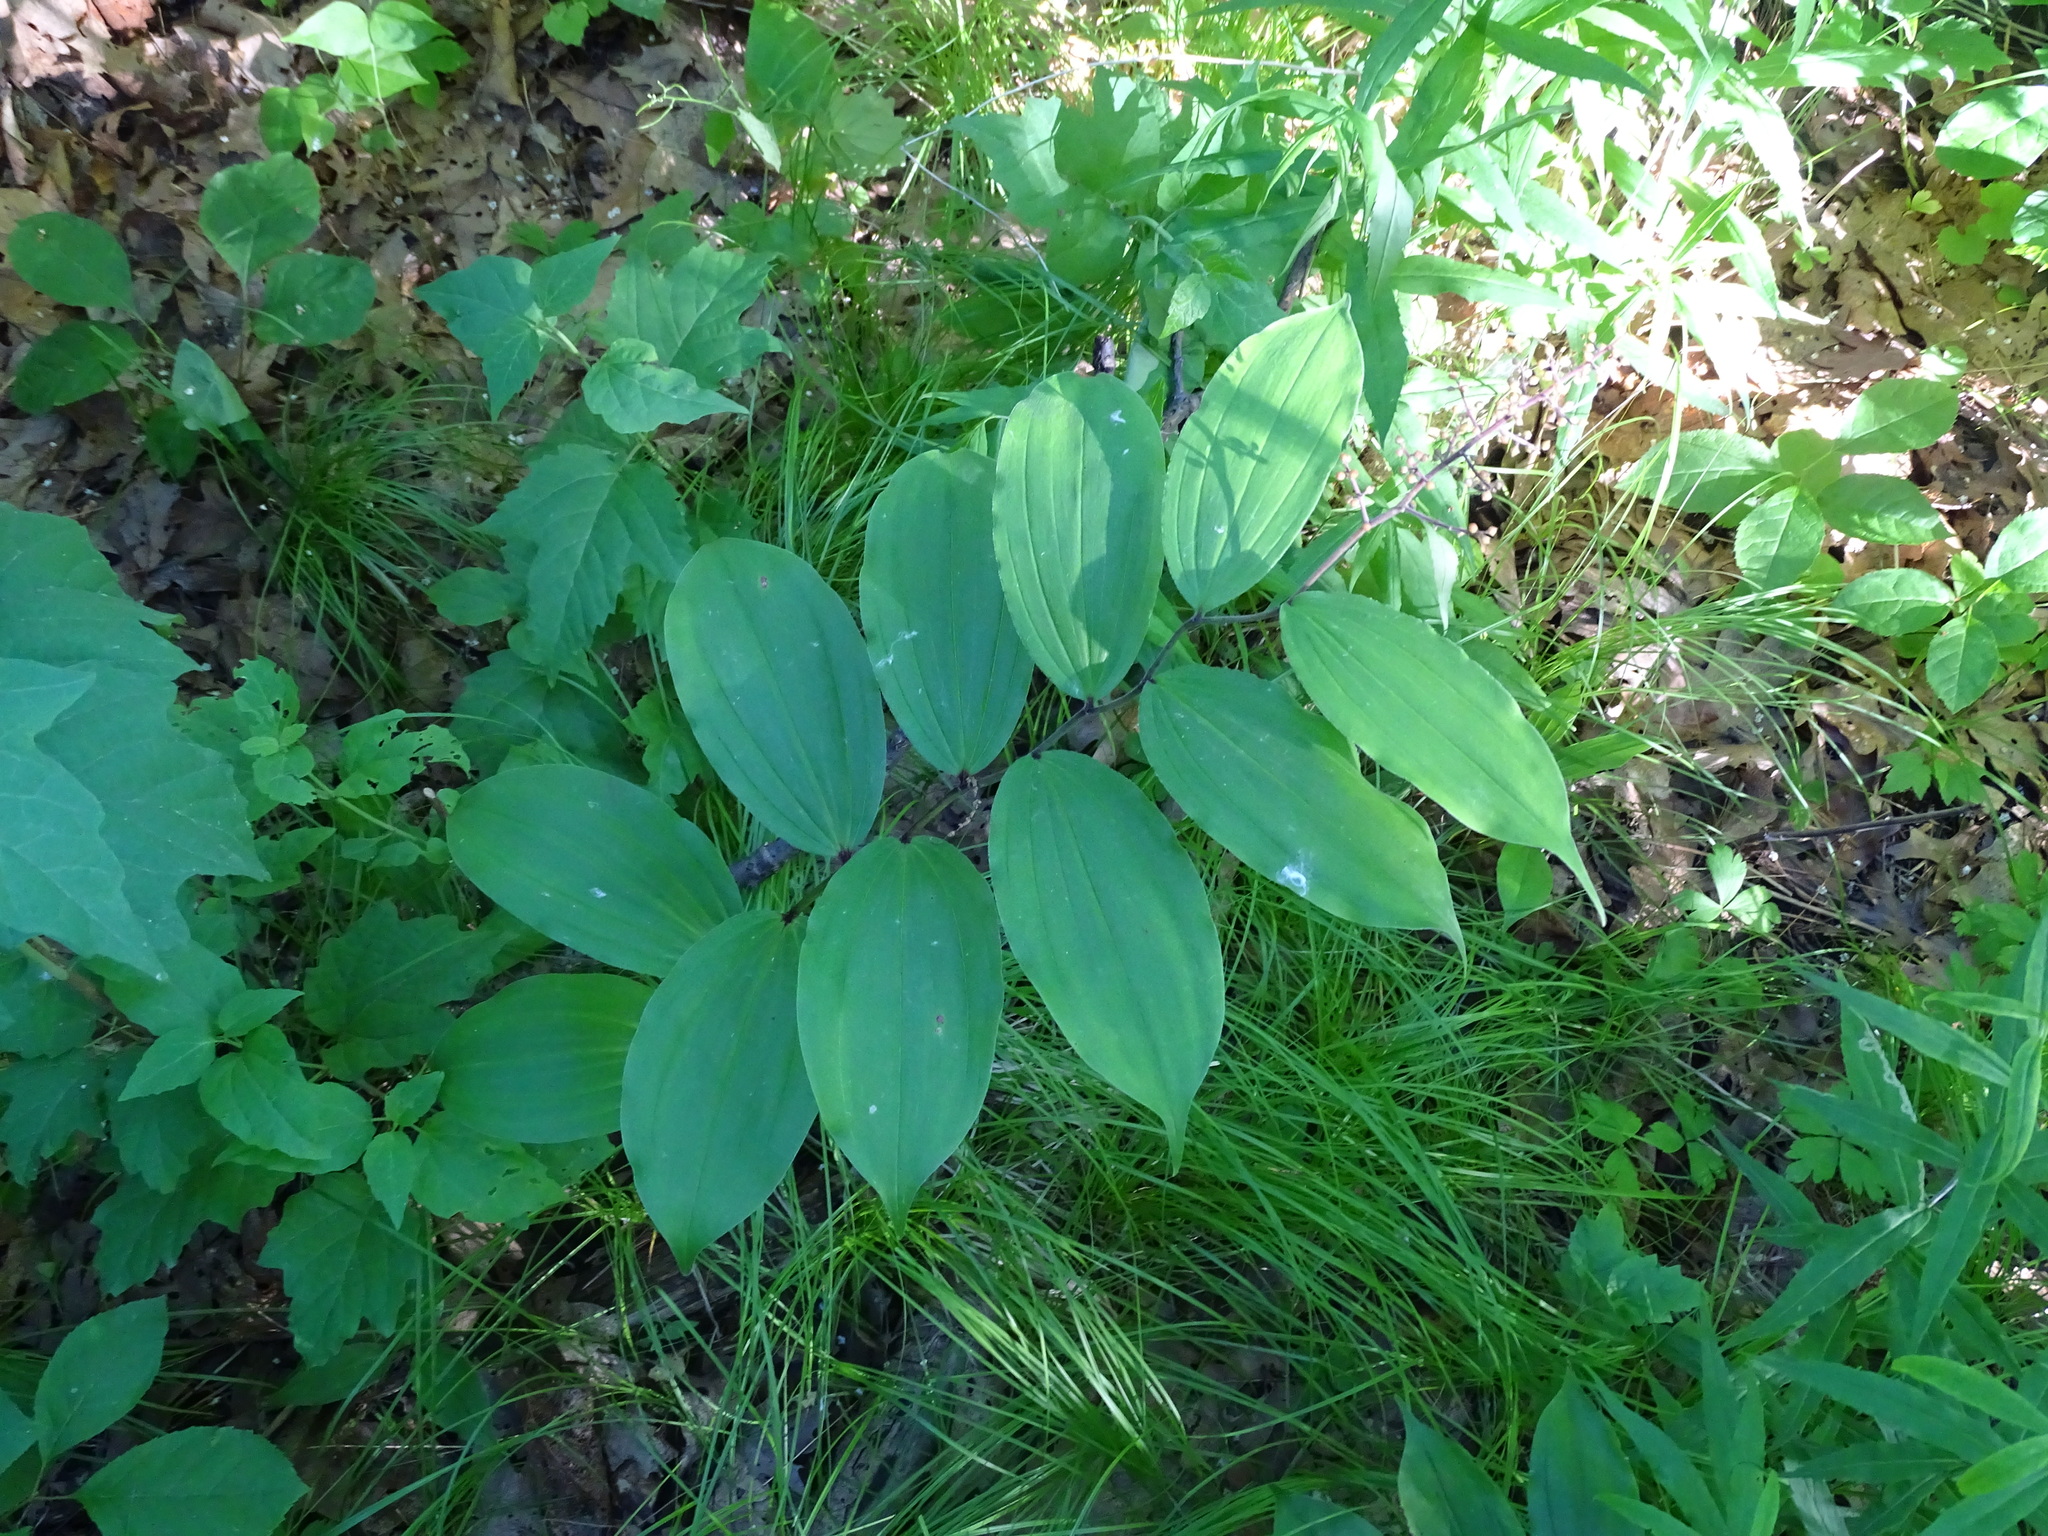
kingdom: Plantae
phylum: Tracheophyta
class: Liliopsida
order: Asparagales
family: Asparagaceae
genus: Maianthemum
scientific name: Maianthemum racemosum
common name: False spikenard
